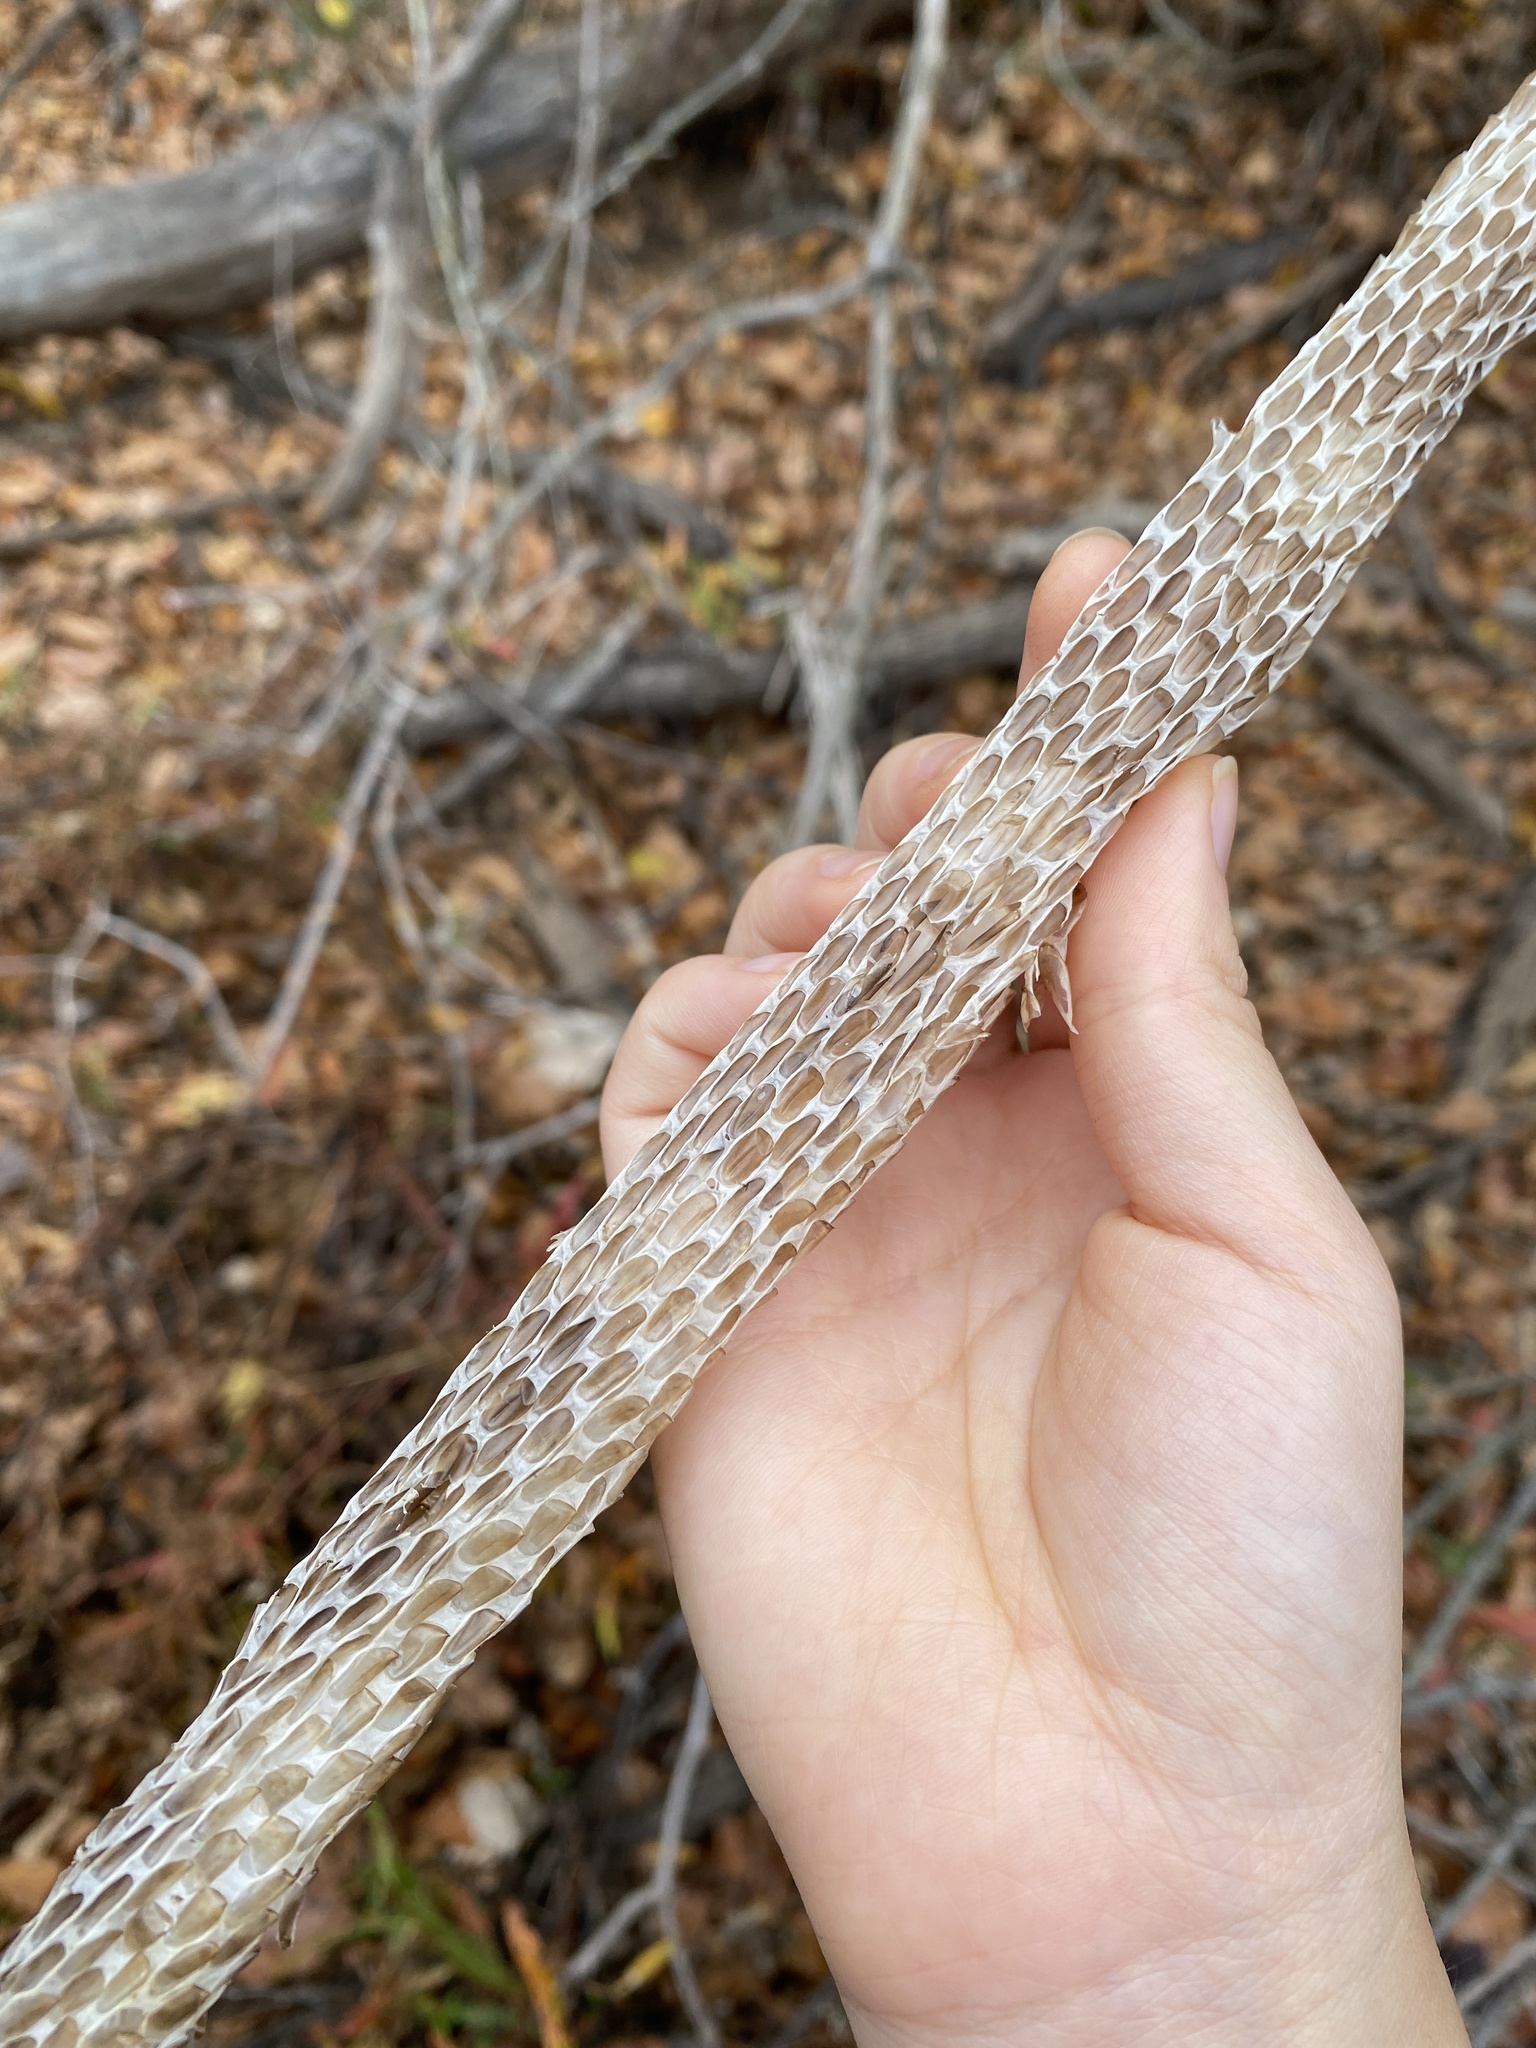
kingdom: Animalia
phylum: Chordata
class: Squamata
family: Colubridae
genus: Pantherophis
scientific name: Pantherophis obsoletus
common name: Black rat snake
